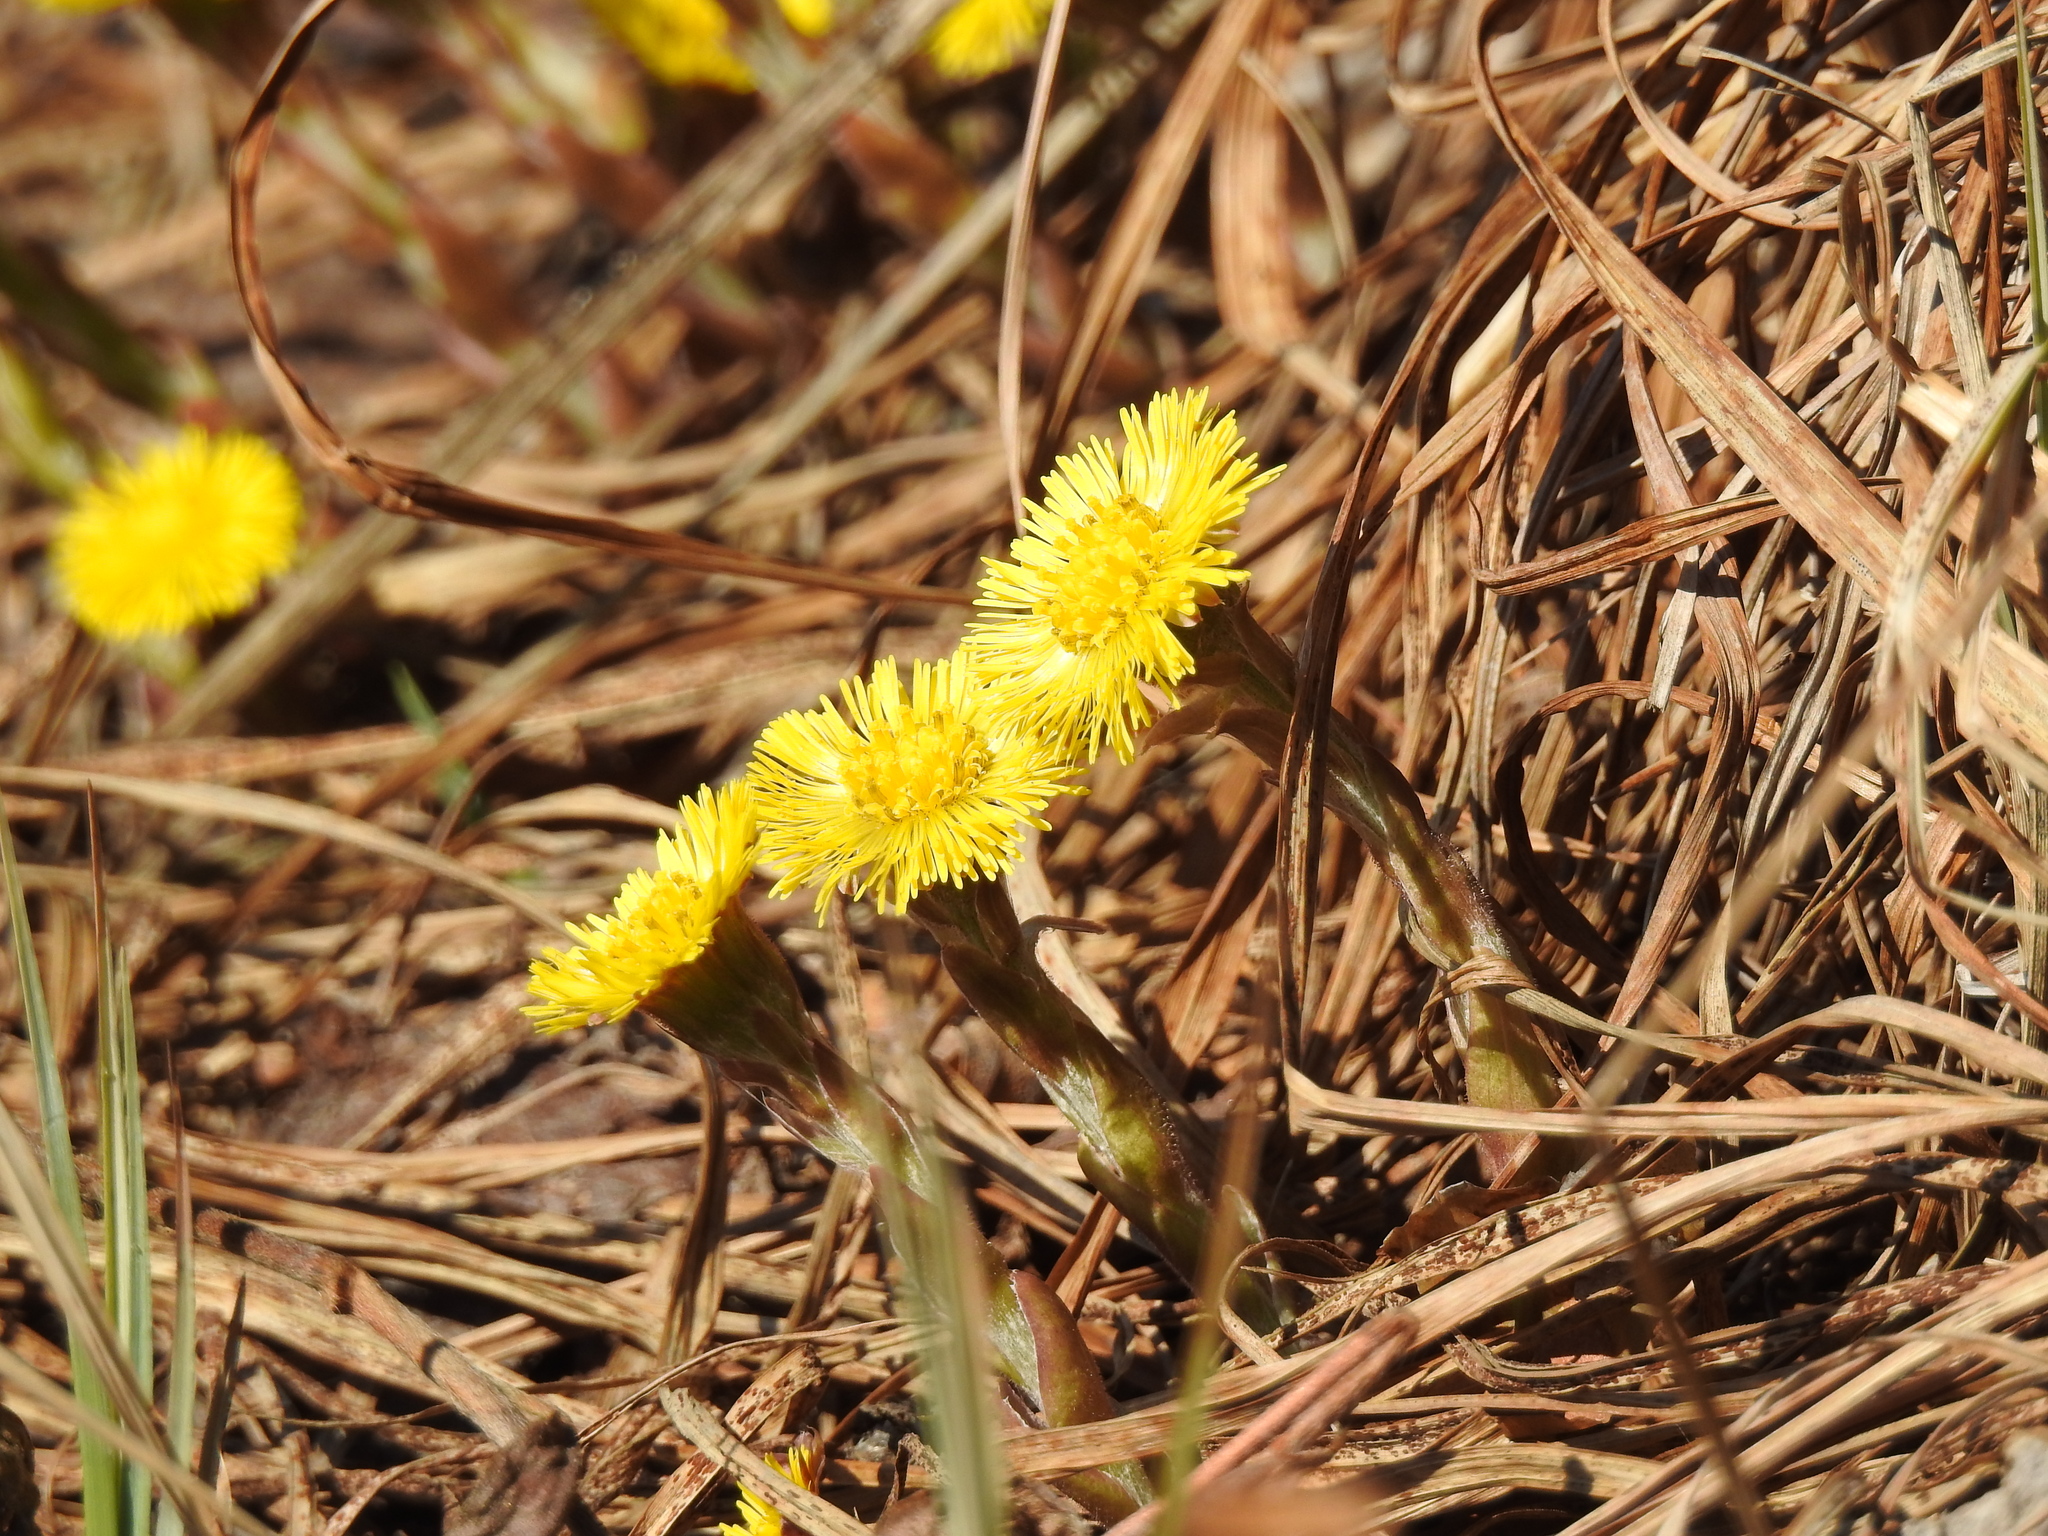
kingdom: Plantae
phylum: Tracheophyta
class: Magnoliopsida
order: Asterales
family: Asteraceae
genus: Tussilago
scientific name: Tussilago farfara
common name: Coltsfoot
